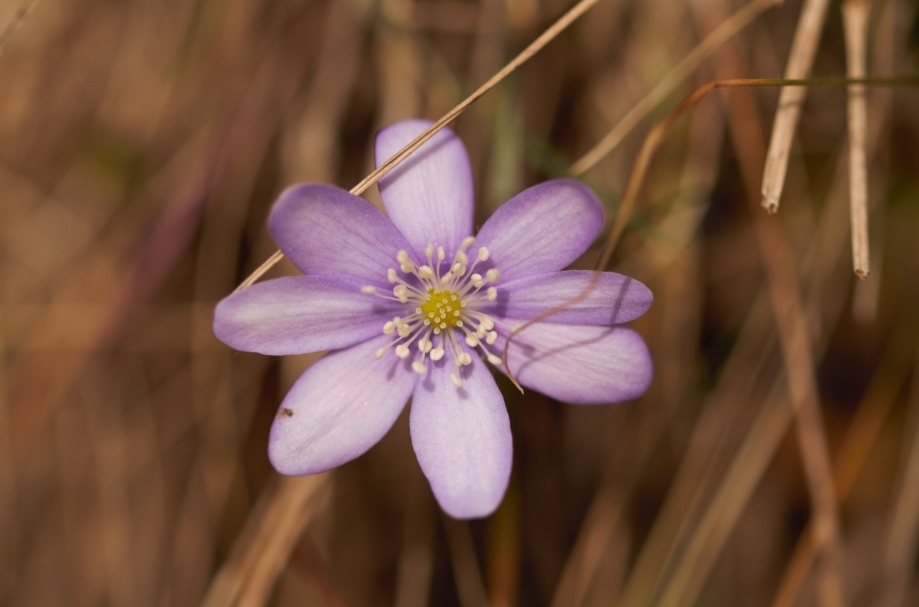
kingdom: Plantae
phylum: Tracheophyta
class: Magnoliopsida
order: Ranunculales
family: Ranunculaceae
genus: Hepatica
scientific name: Hepatica nobilis
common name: Liverleaf
